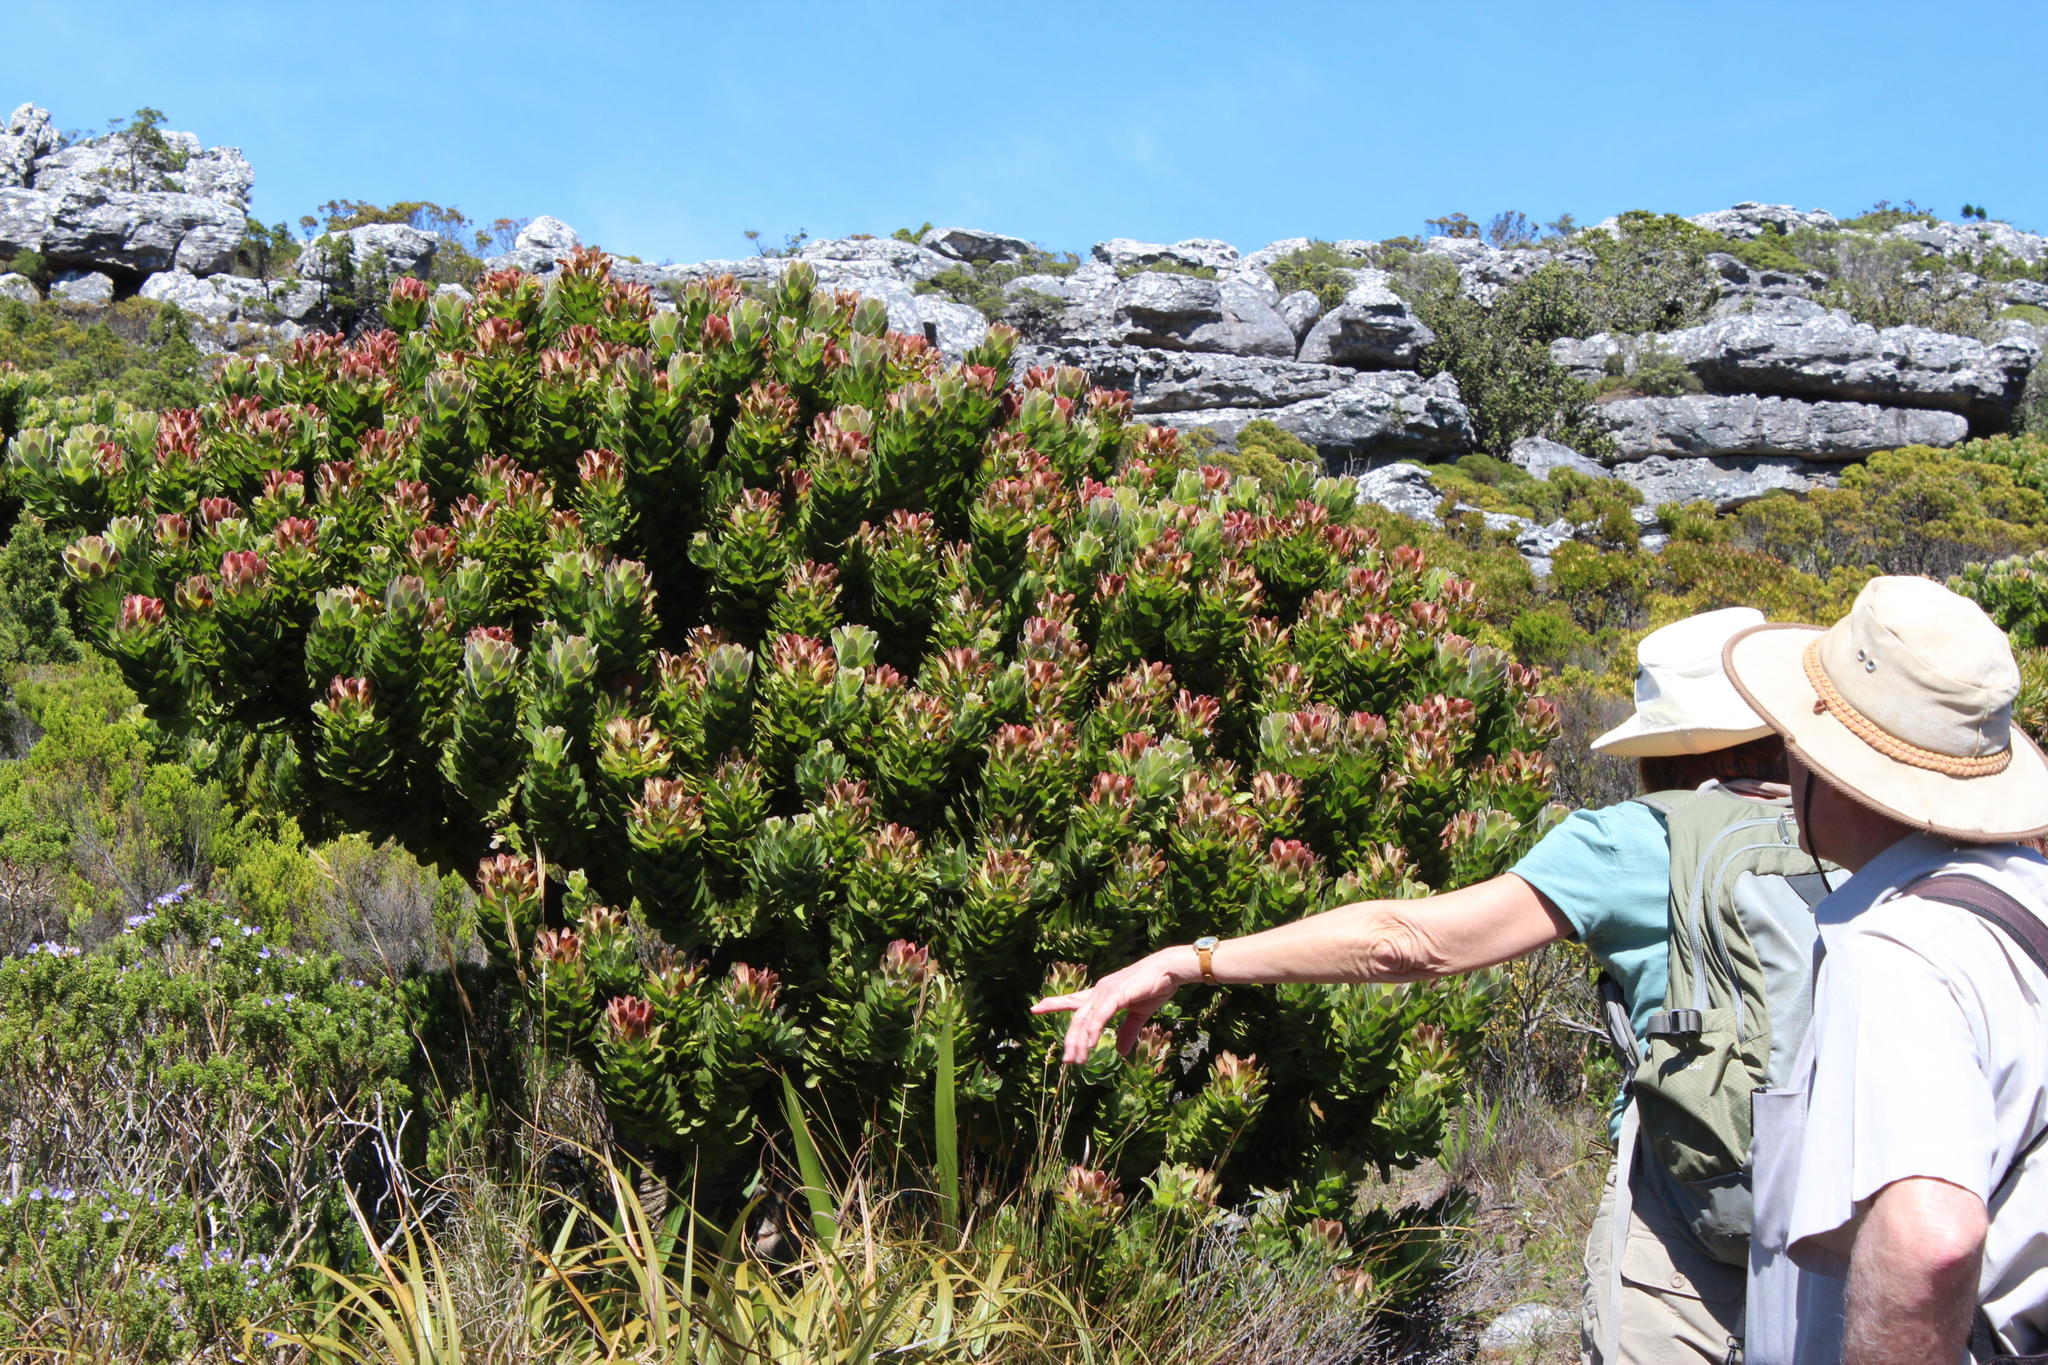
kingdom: Plantae
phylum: Tracheophyta
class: Magnoliopsida
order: Proteales
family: Proteaceae
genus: Mimetes
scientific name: Mimetes fimbriifolius
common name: Fringed bottlebrush
